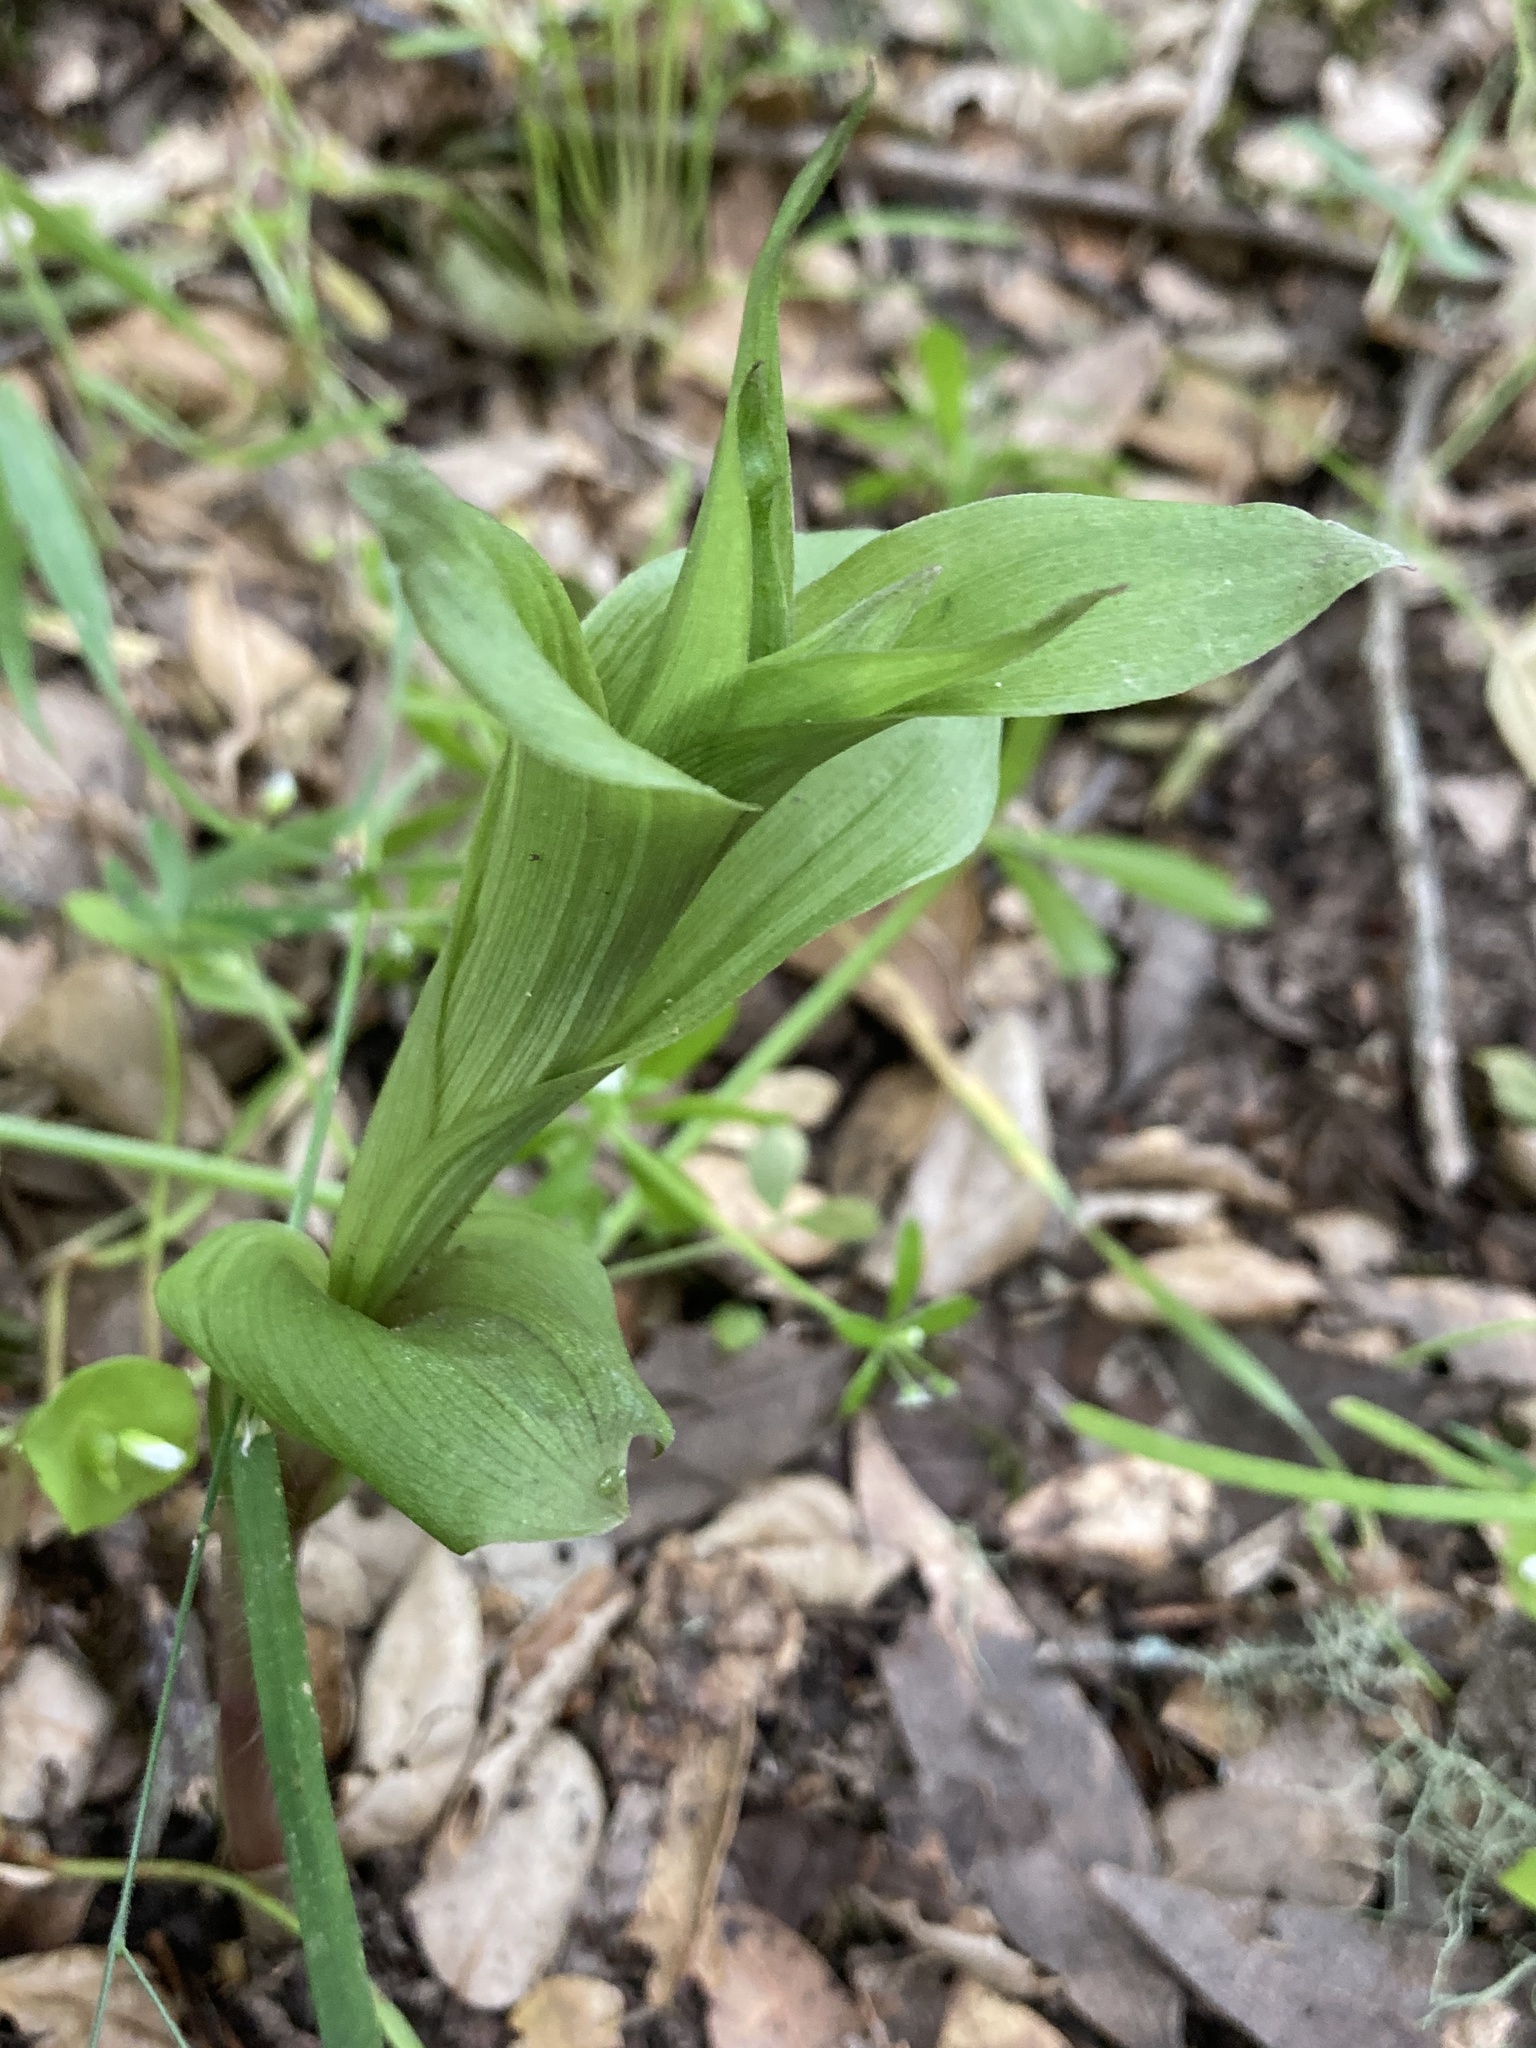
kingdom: Plantae
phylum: Tracheophyta
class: Liliopsida
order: Asparagales
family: Orchidaceae
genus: Epipactis
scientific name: Epipactis helleborine
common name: Broad-leaved helleborine
